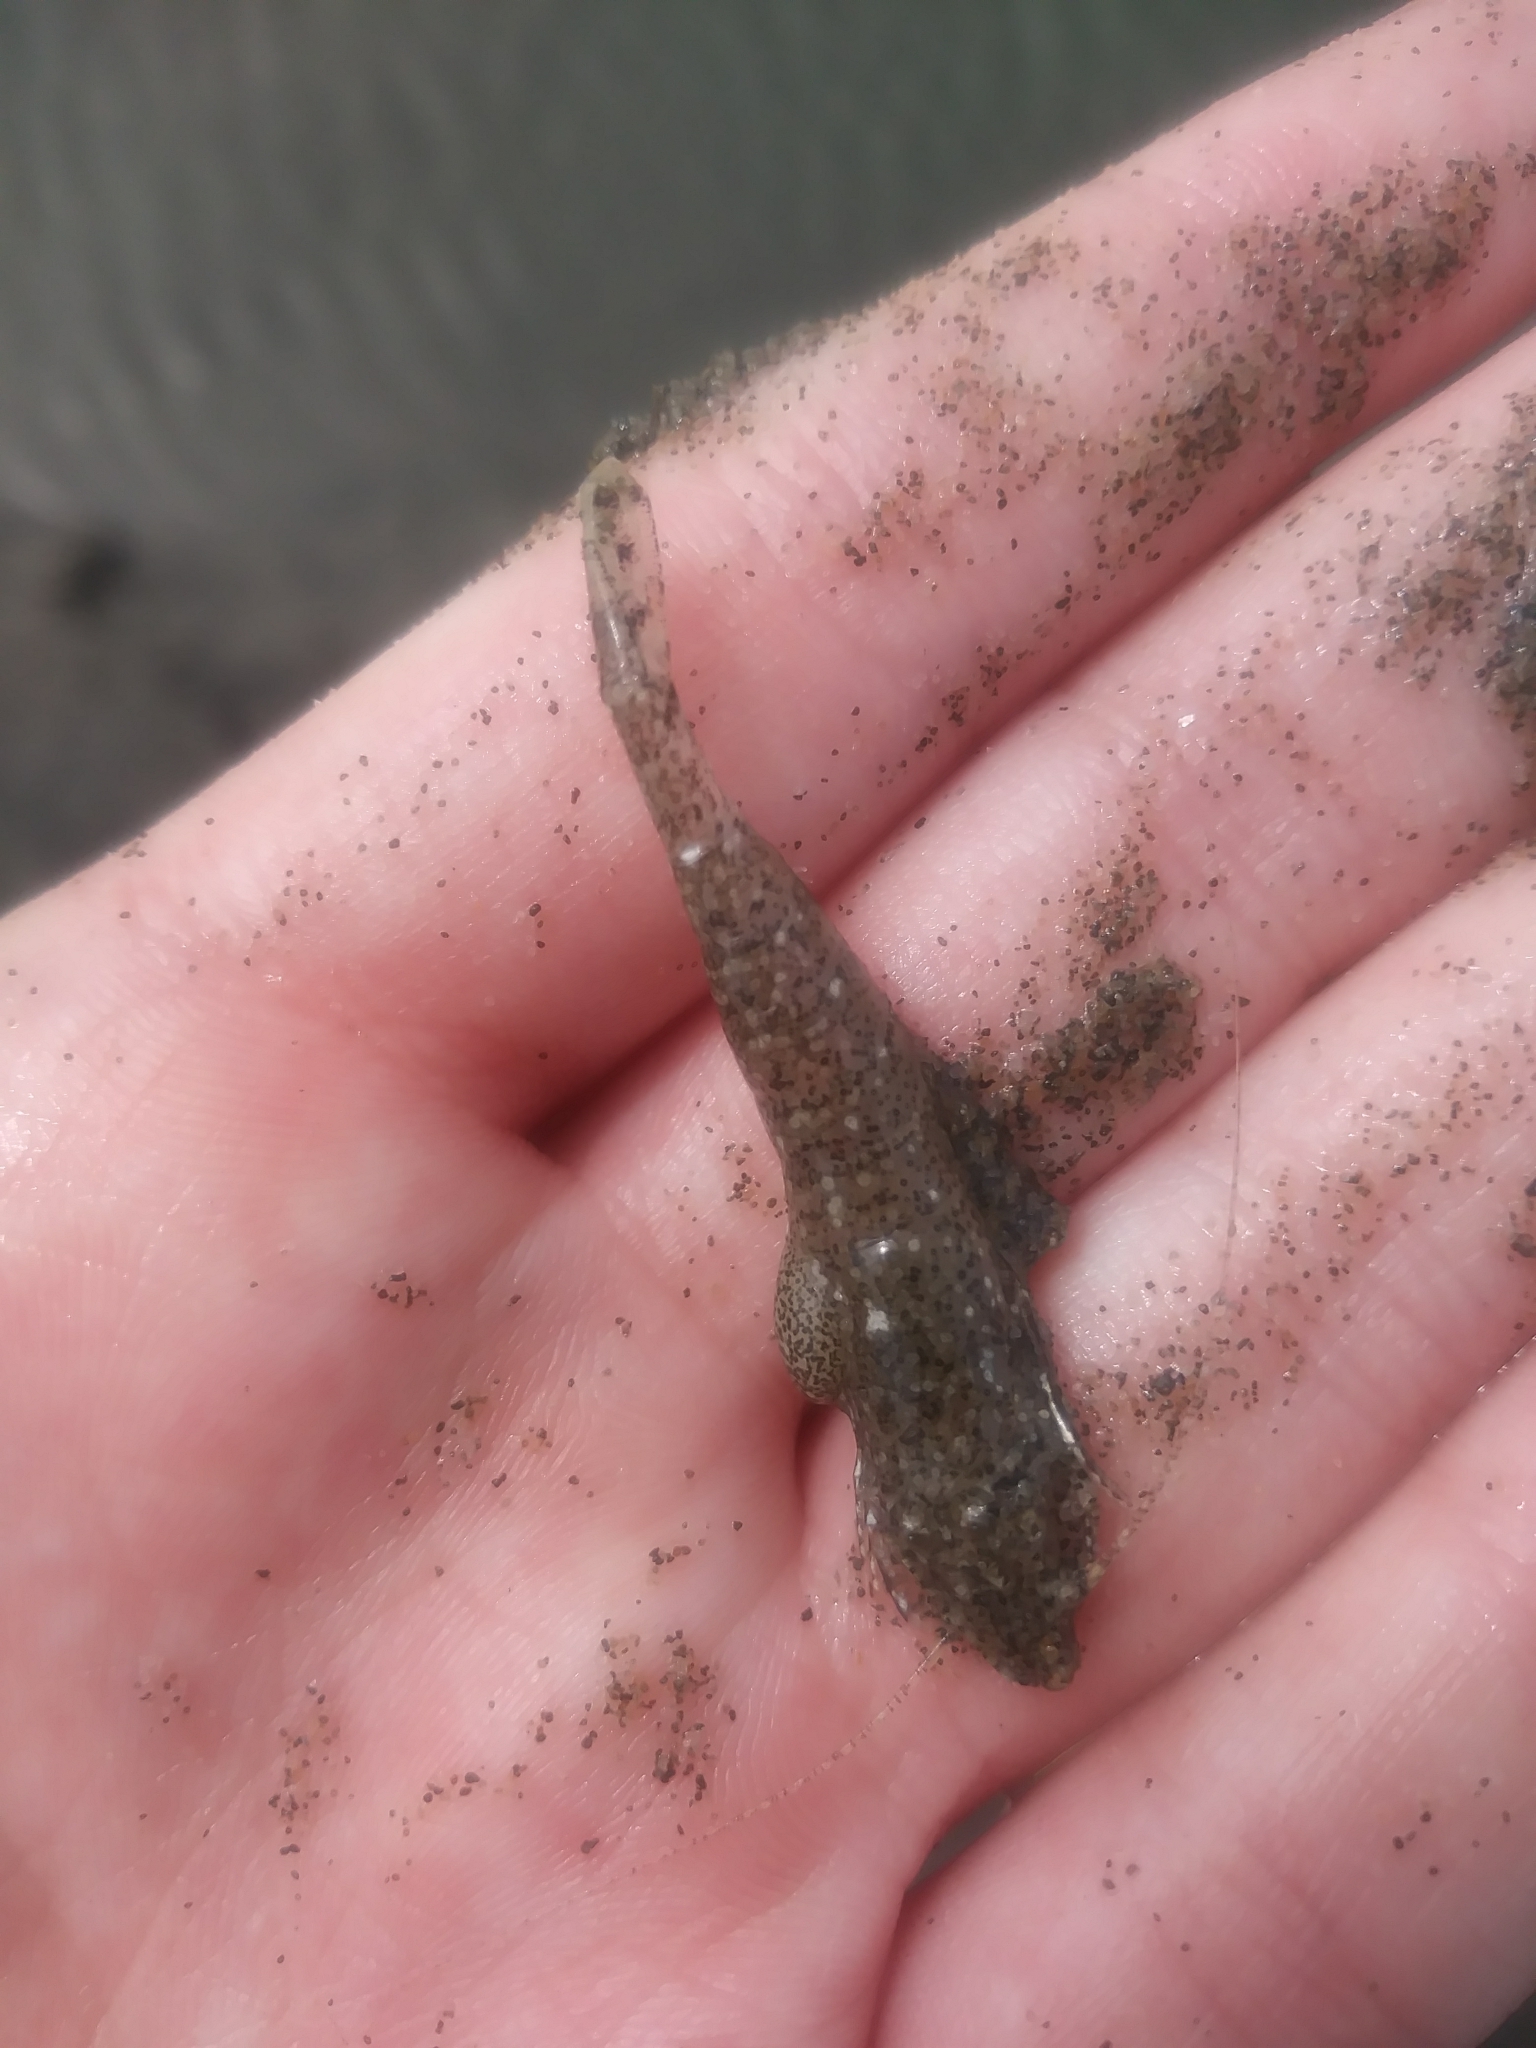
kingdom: Animalia
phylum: Arthropoda
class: Malacostraca
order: Isopoda
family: Bopyridae
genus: Argeia
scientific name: Argeia pugettensis
